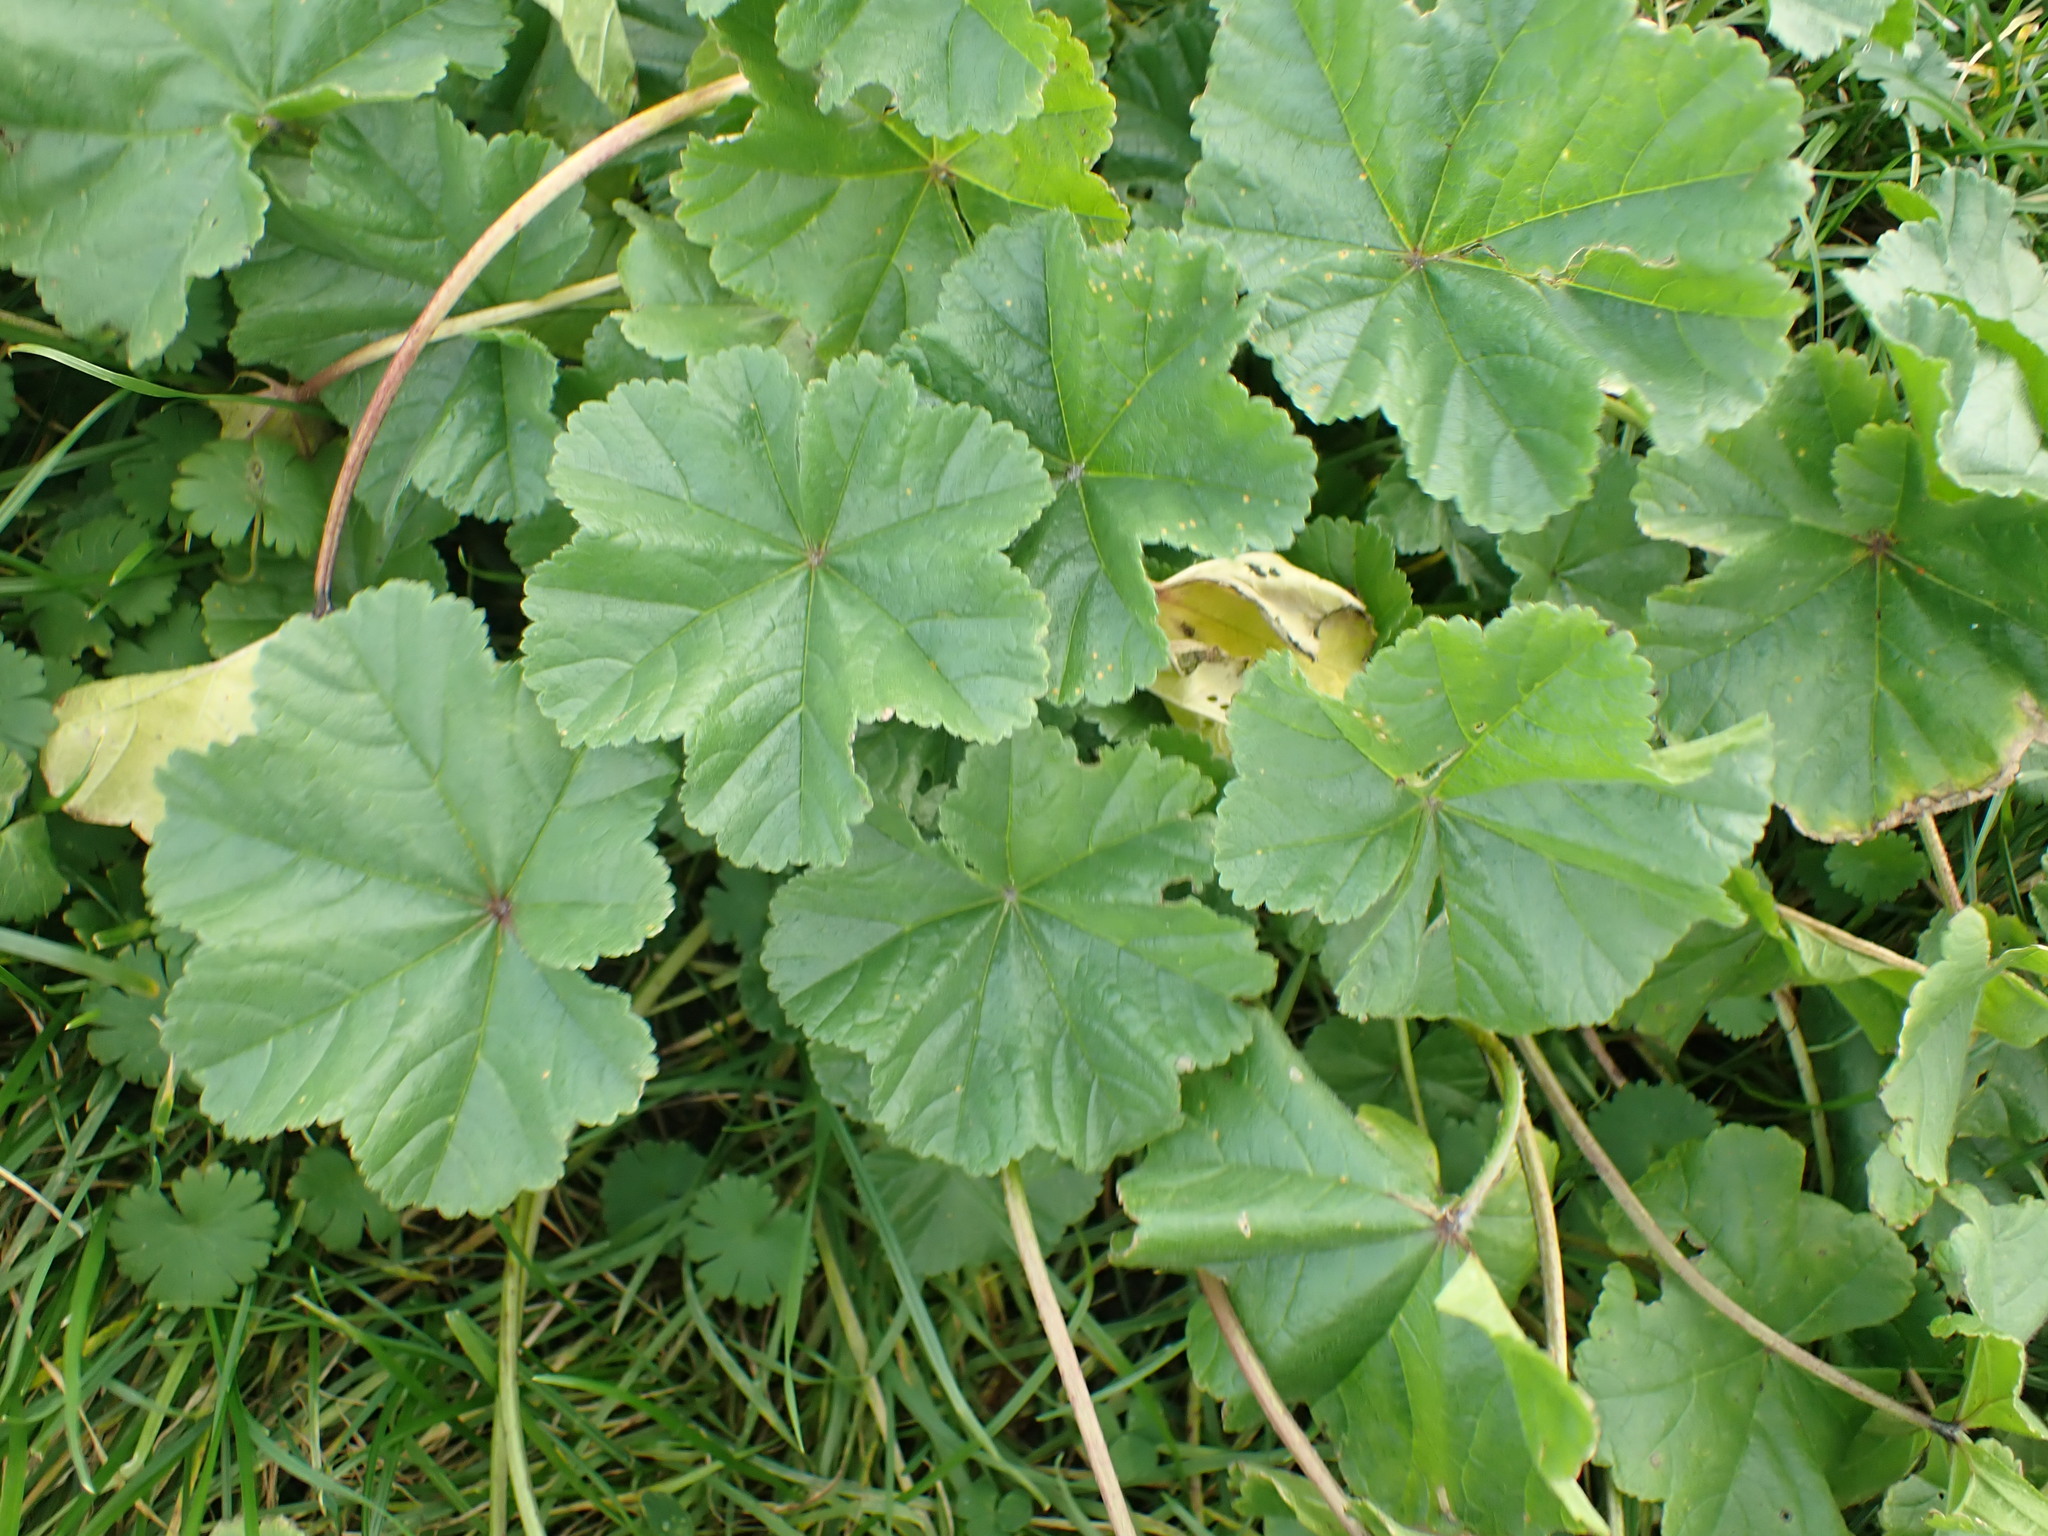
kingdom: Plantae
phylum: Tracheophyta
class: Magnoliopsida
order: Malvales
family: Malvaceae
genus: Malva
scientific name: Malva sylvestris
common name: Common mallow
